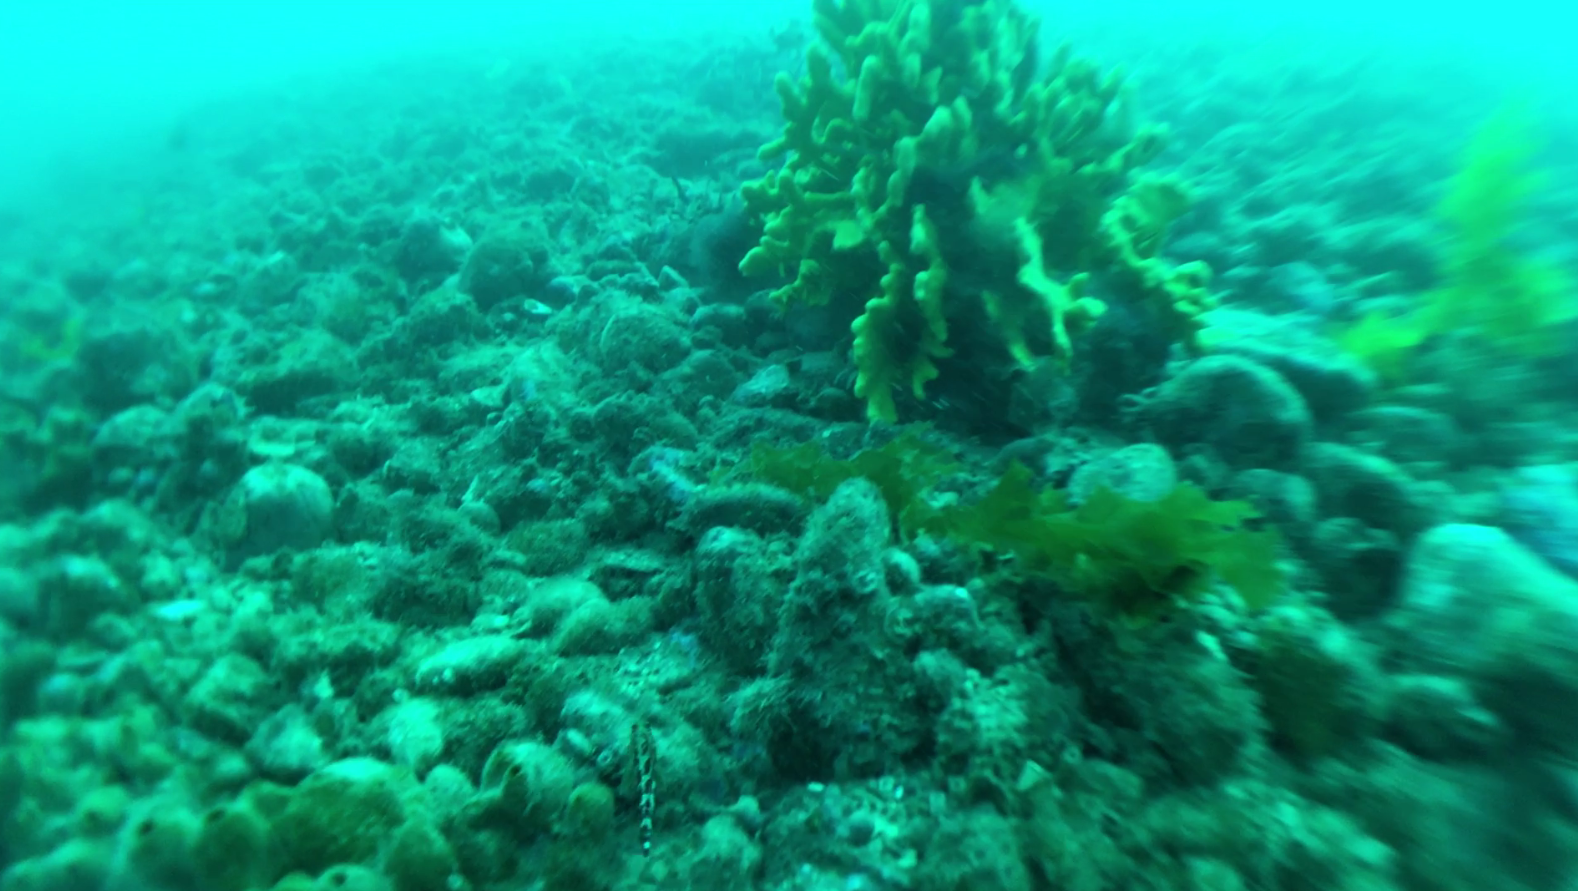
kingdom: Animalia
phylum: Chordata
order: Perciformes
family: Tripterygiidae
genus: Forsterygion
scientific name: Forsterygion malcolmi
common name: Mottled triplefin
